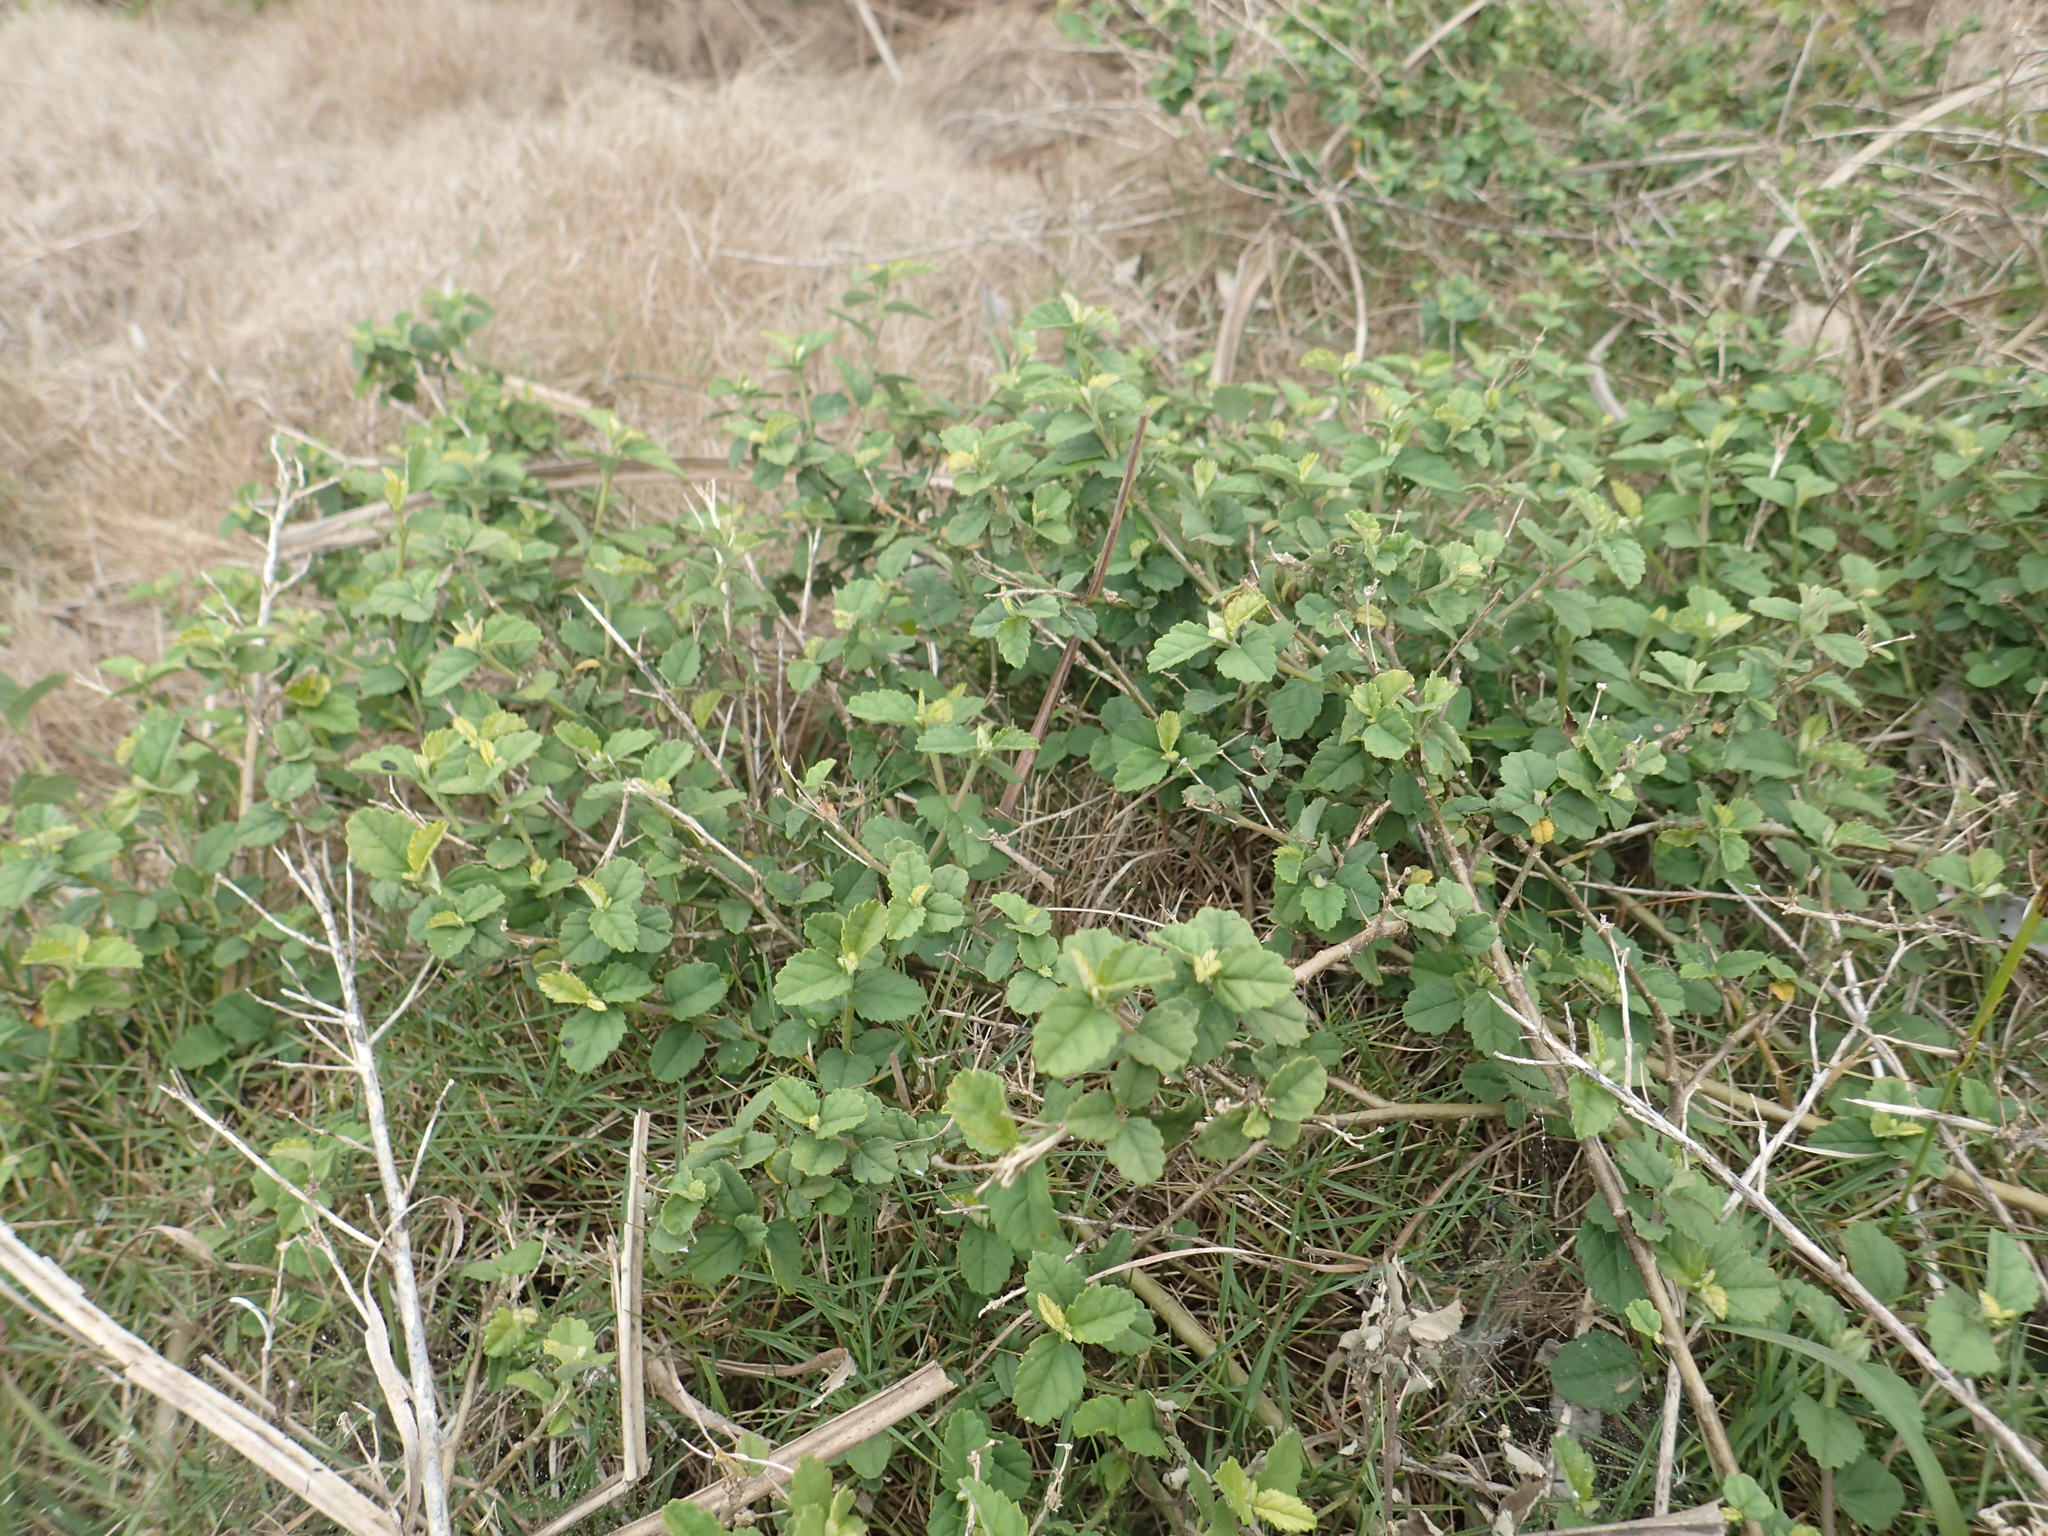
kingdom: Plantae
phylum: Tracheophyta
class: Magnoliopsida
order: Malvales
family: Malvaceae
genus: Sida
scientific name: Sida rhombifolia
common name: Queensland-hemp
